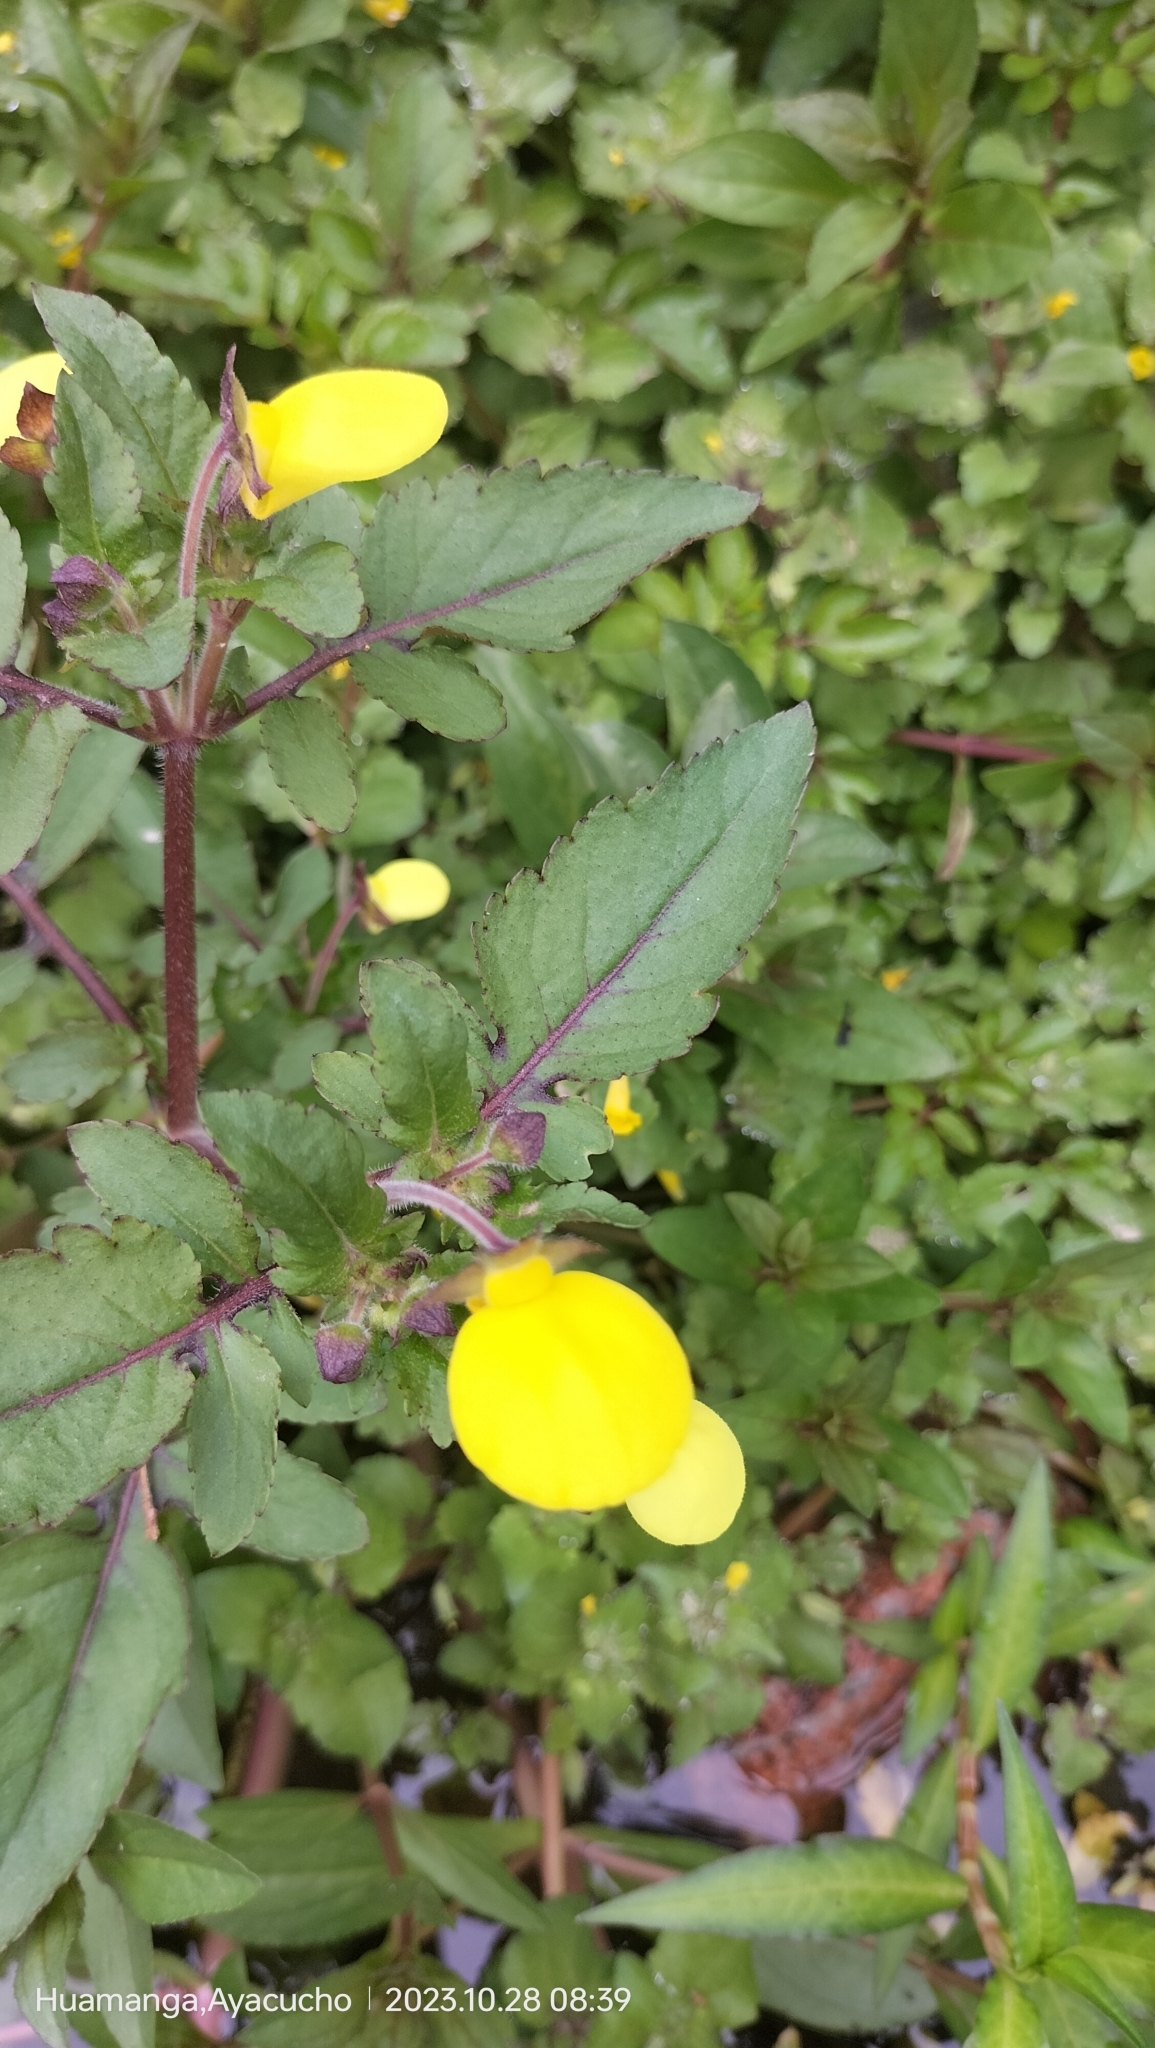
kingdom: Plantae
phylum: Tracheophyta
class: Magnoliopsida
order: Lamiales
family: Calceolariaceae
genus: Calceolaria
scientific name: Calceolaria tripartita
